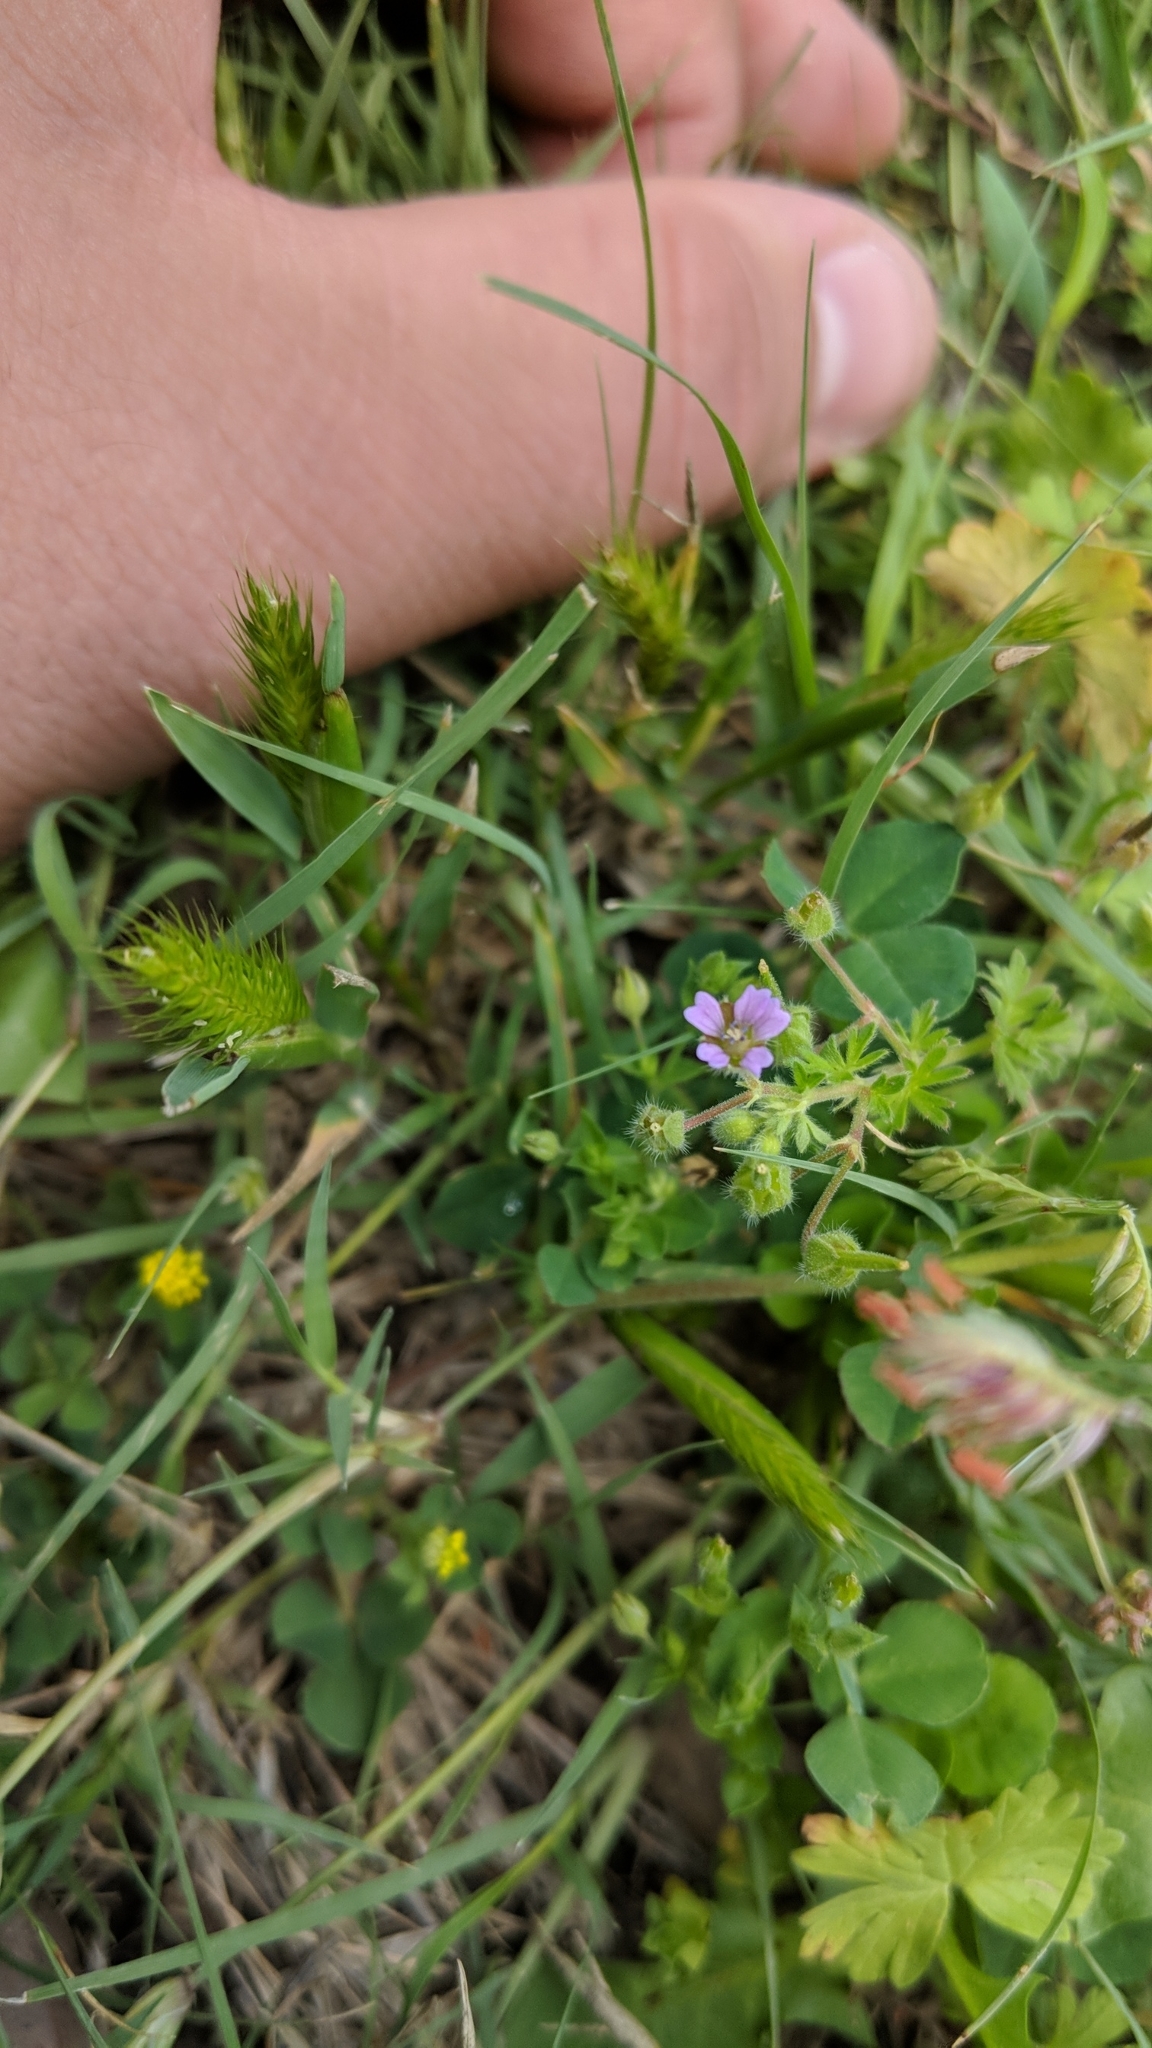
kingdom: Plantae
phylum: Tracheophyta
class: Magnoliopsida
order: Geraniales
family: Geraniaceae
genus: Geranium
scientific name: Geranium pusillum
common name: Small geranium
